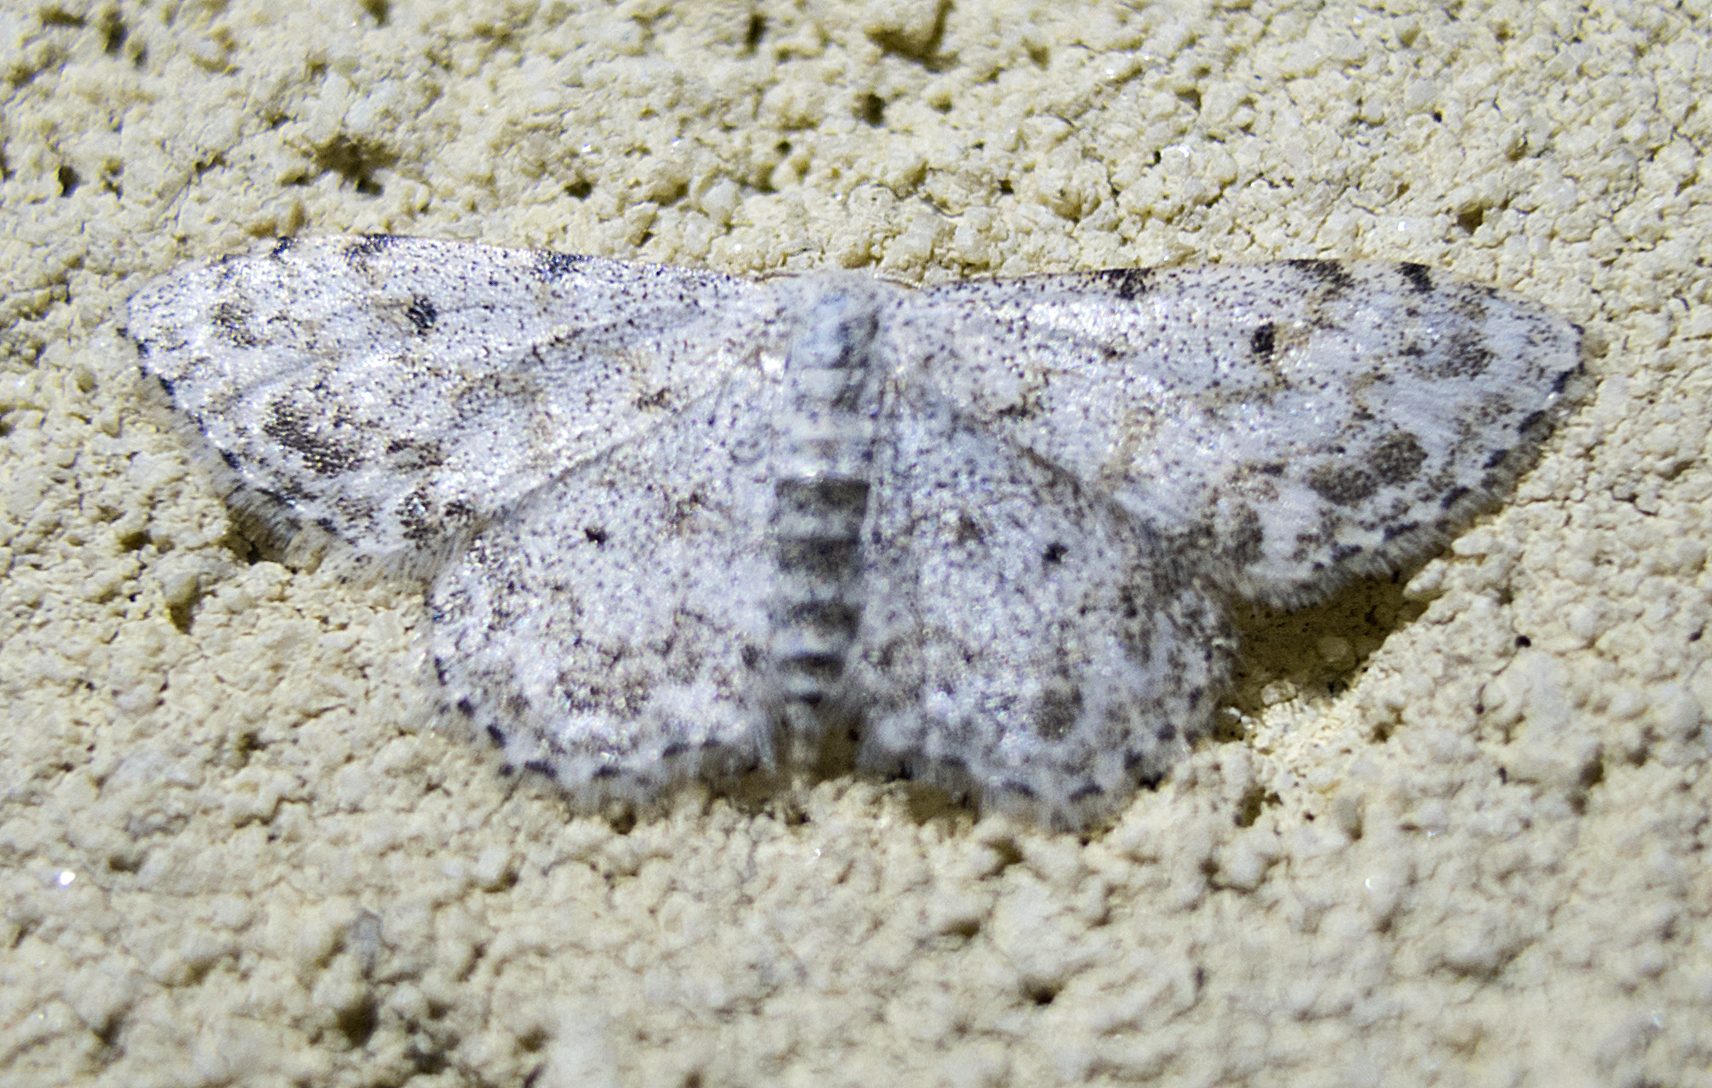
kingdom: Animalia
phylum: Arthropoda
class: Insecta
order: Lepidoptera
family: Geometridae
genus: Idaea
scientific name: Idaea camparia
